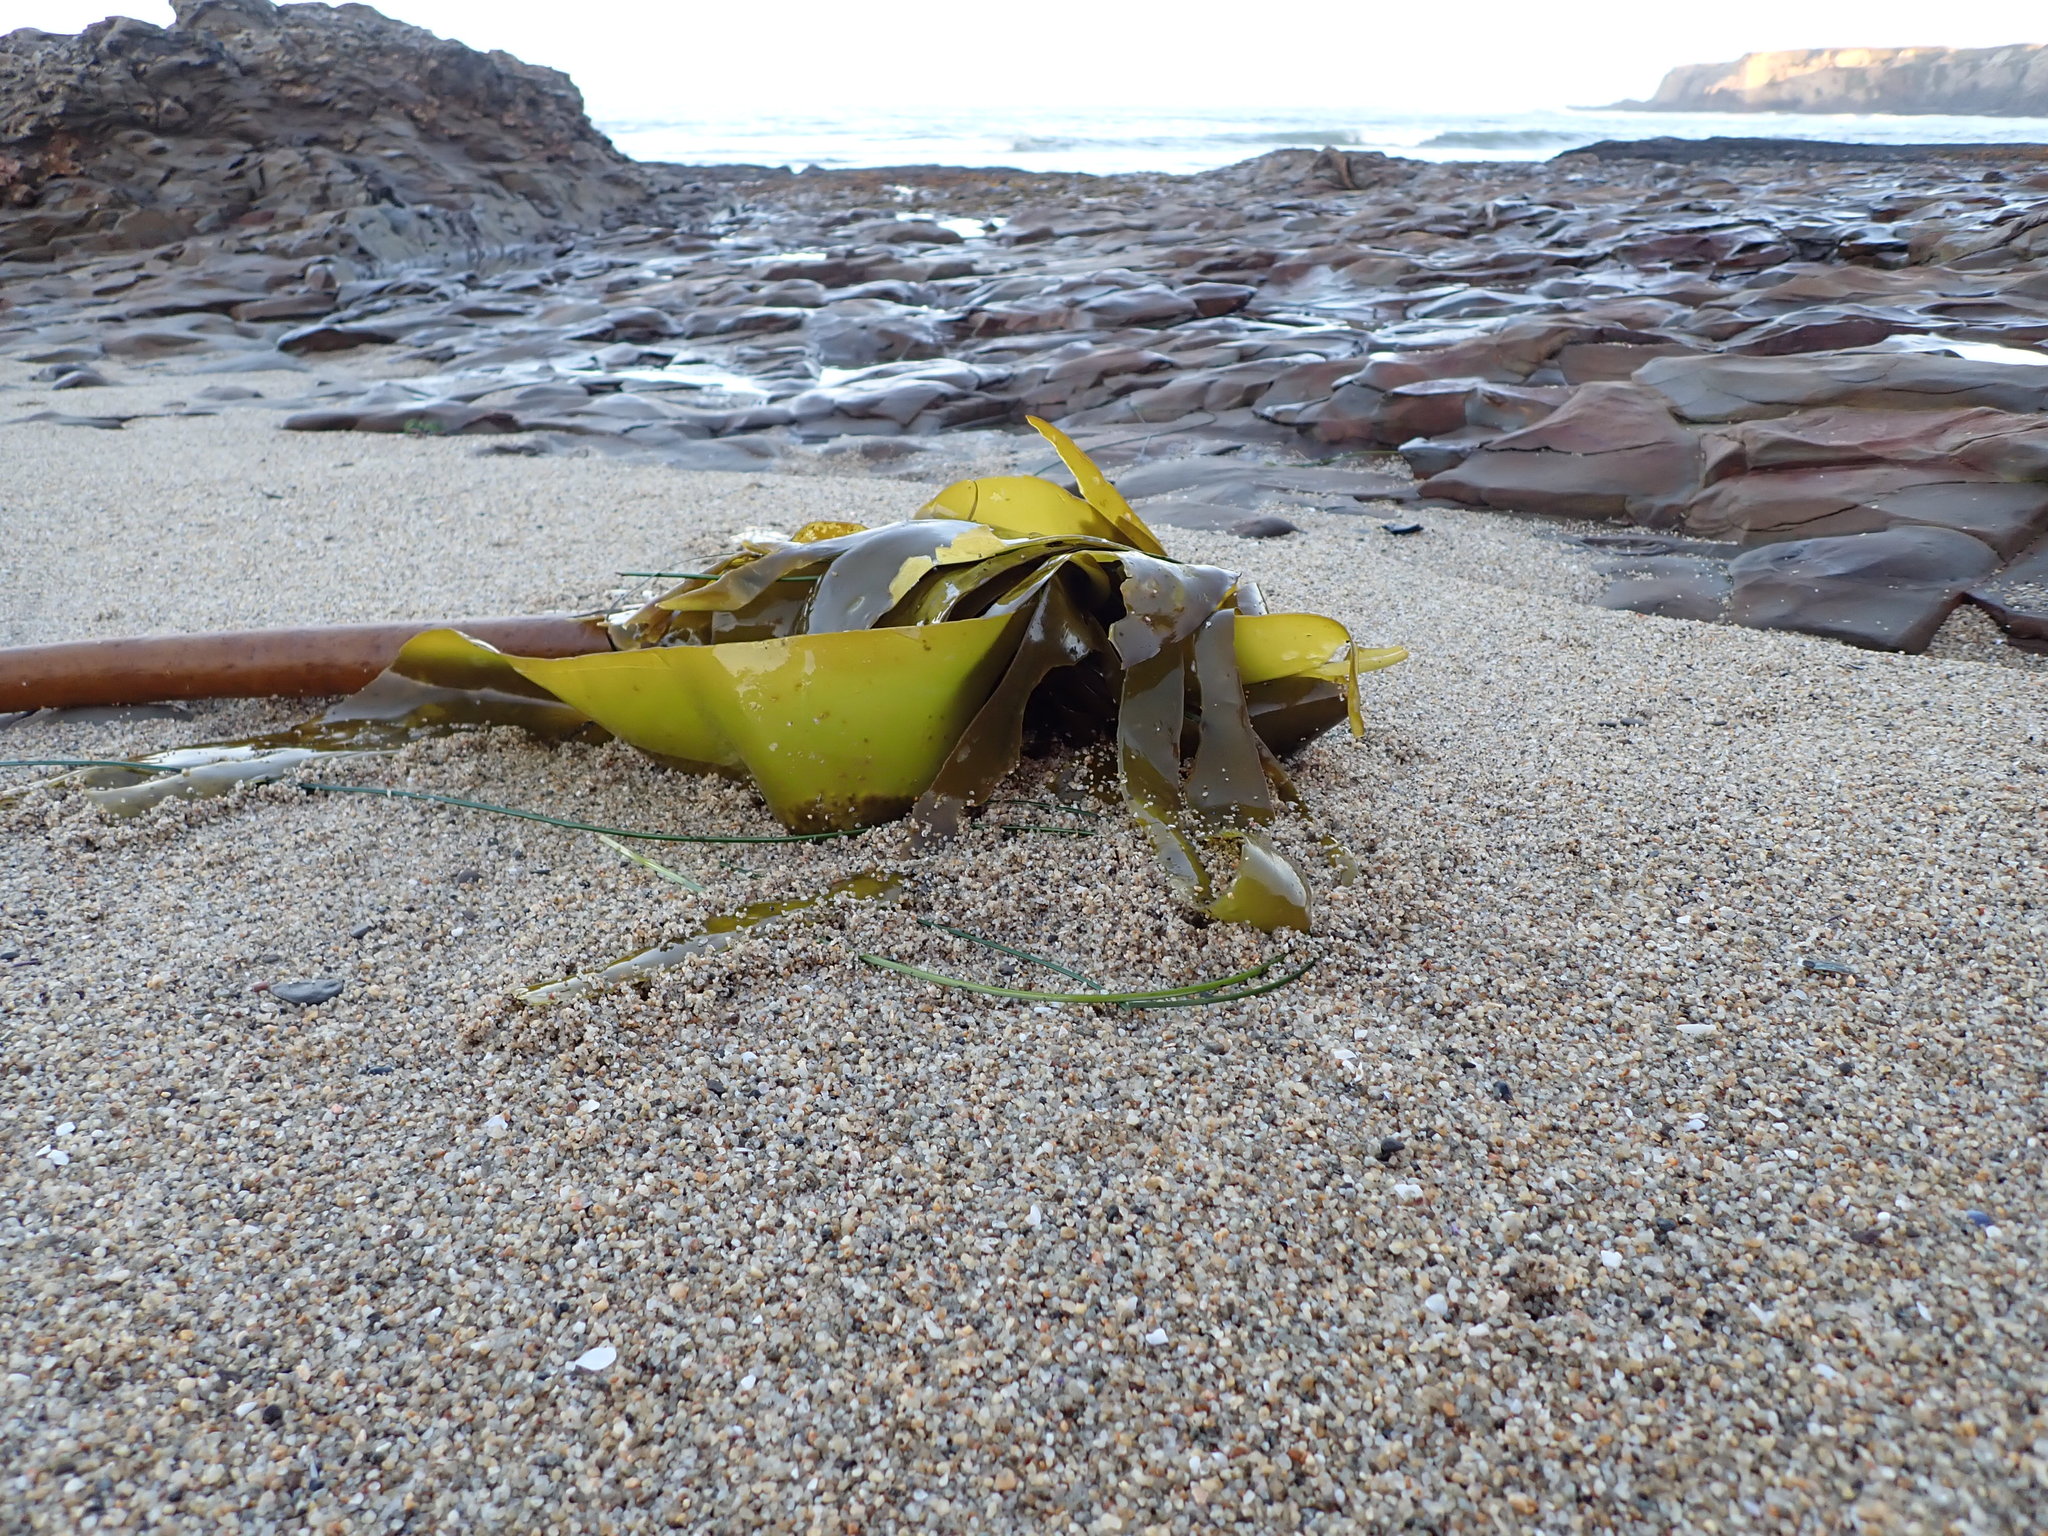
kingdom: Chromista
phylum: Ochrophyta
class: Phaeophyceae
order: Laminariales
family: Laminariaceae
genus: Nereocystis
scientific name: Nereocystis luetkeana
